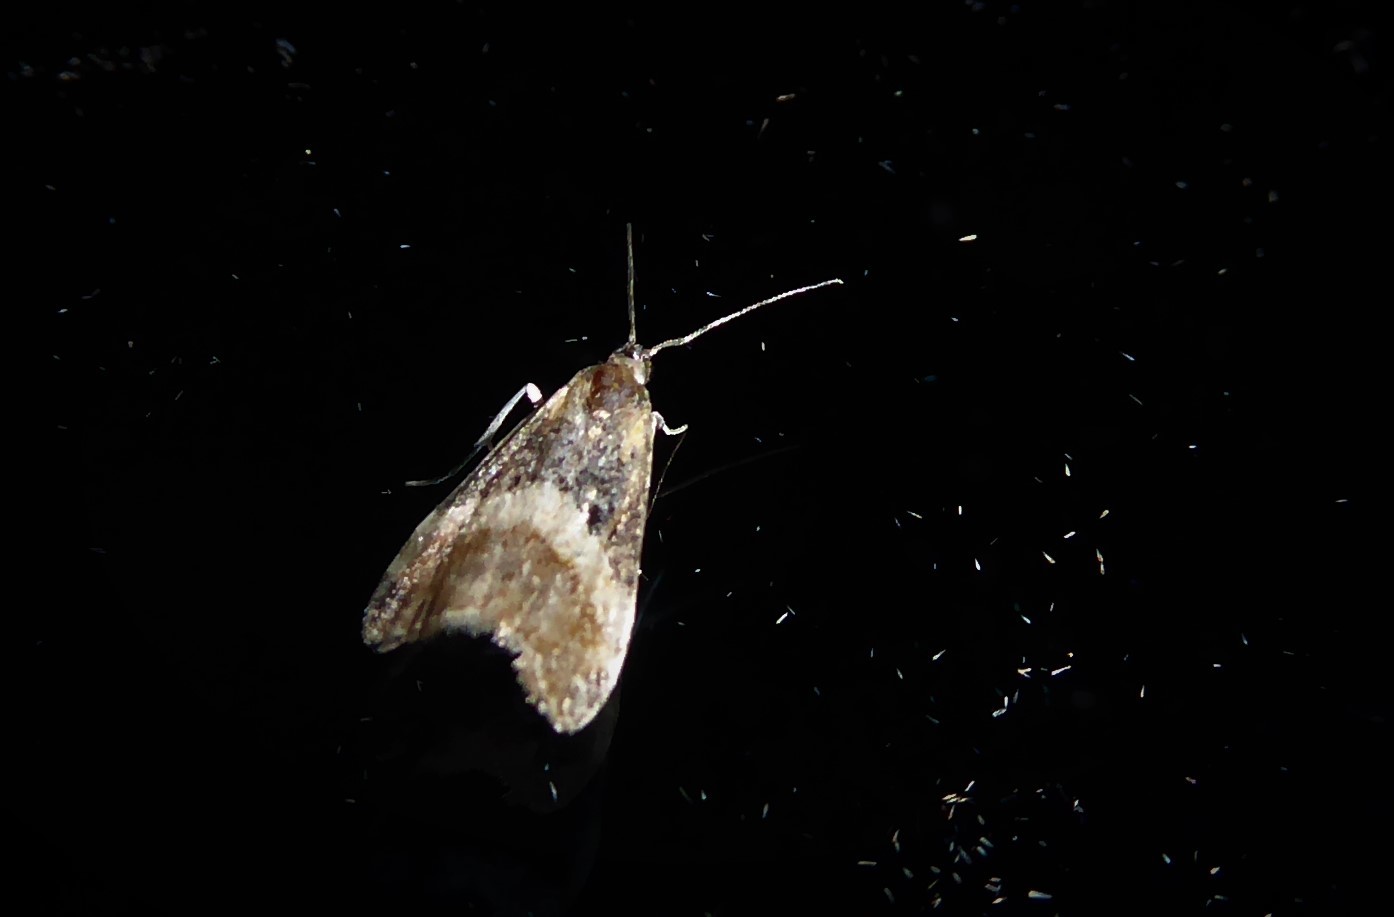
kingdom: Animalia
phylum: Arthropoda
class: Insecta
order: Lepidoptera
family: Crambidae
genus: Eudonia
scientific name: Eudonia chlamydota
